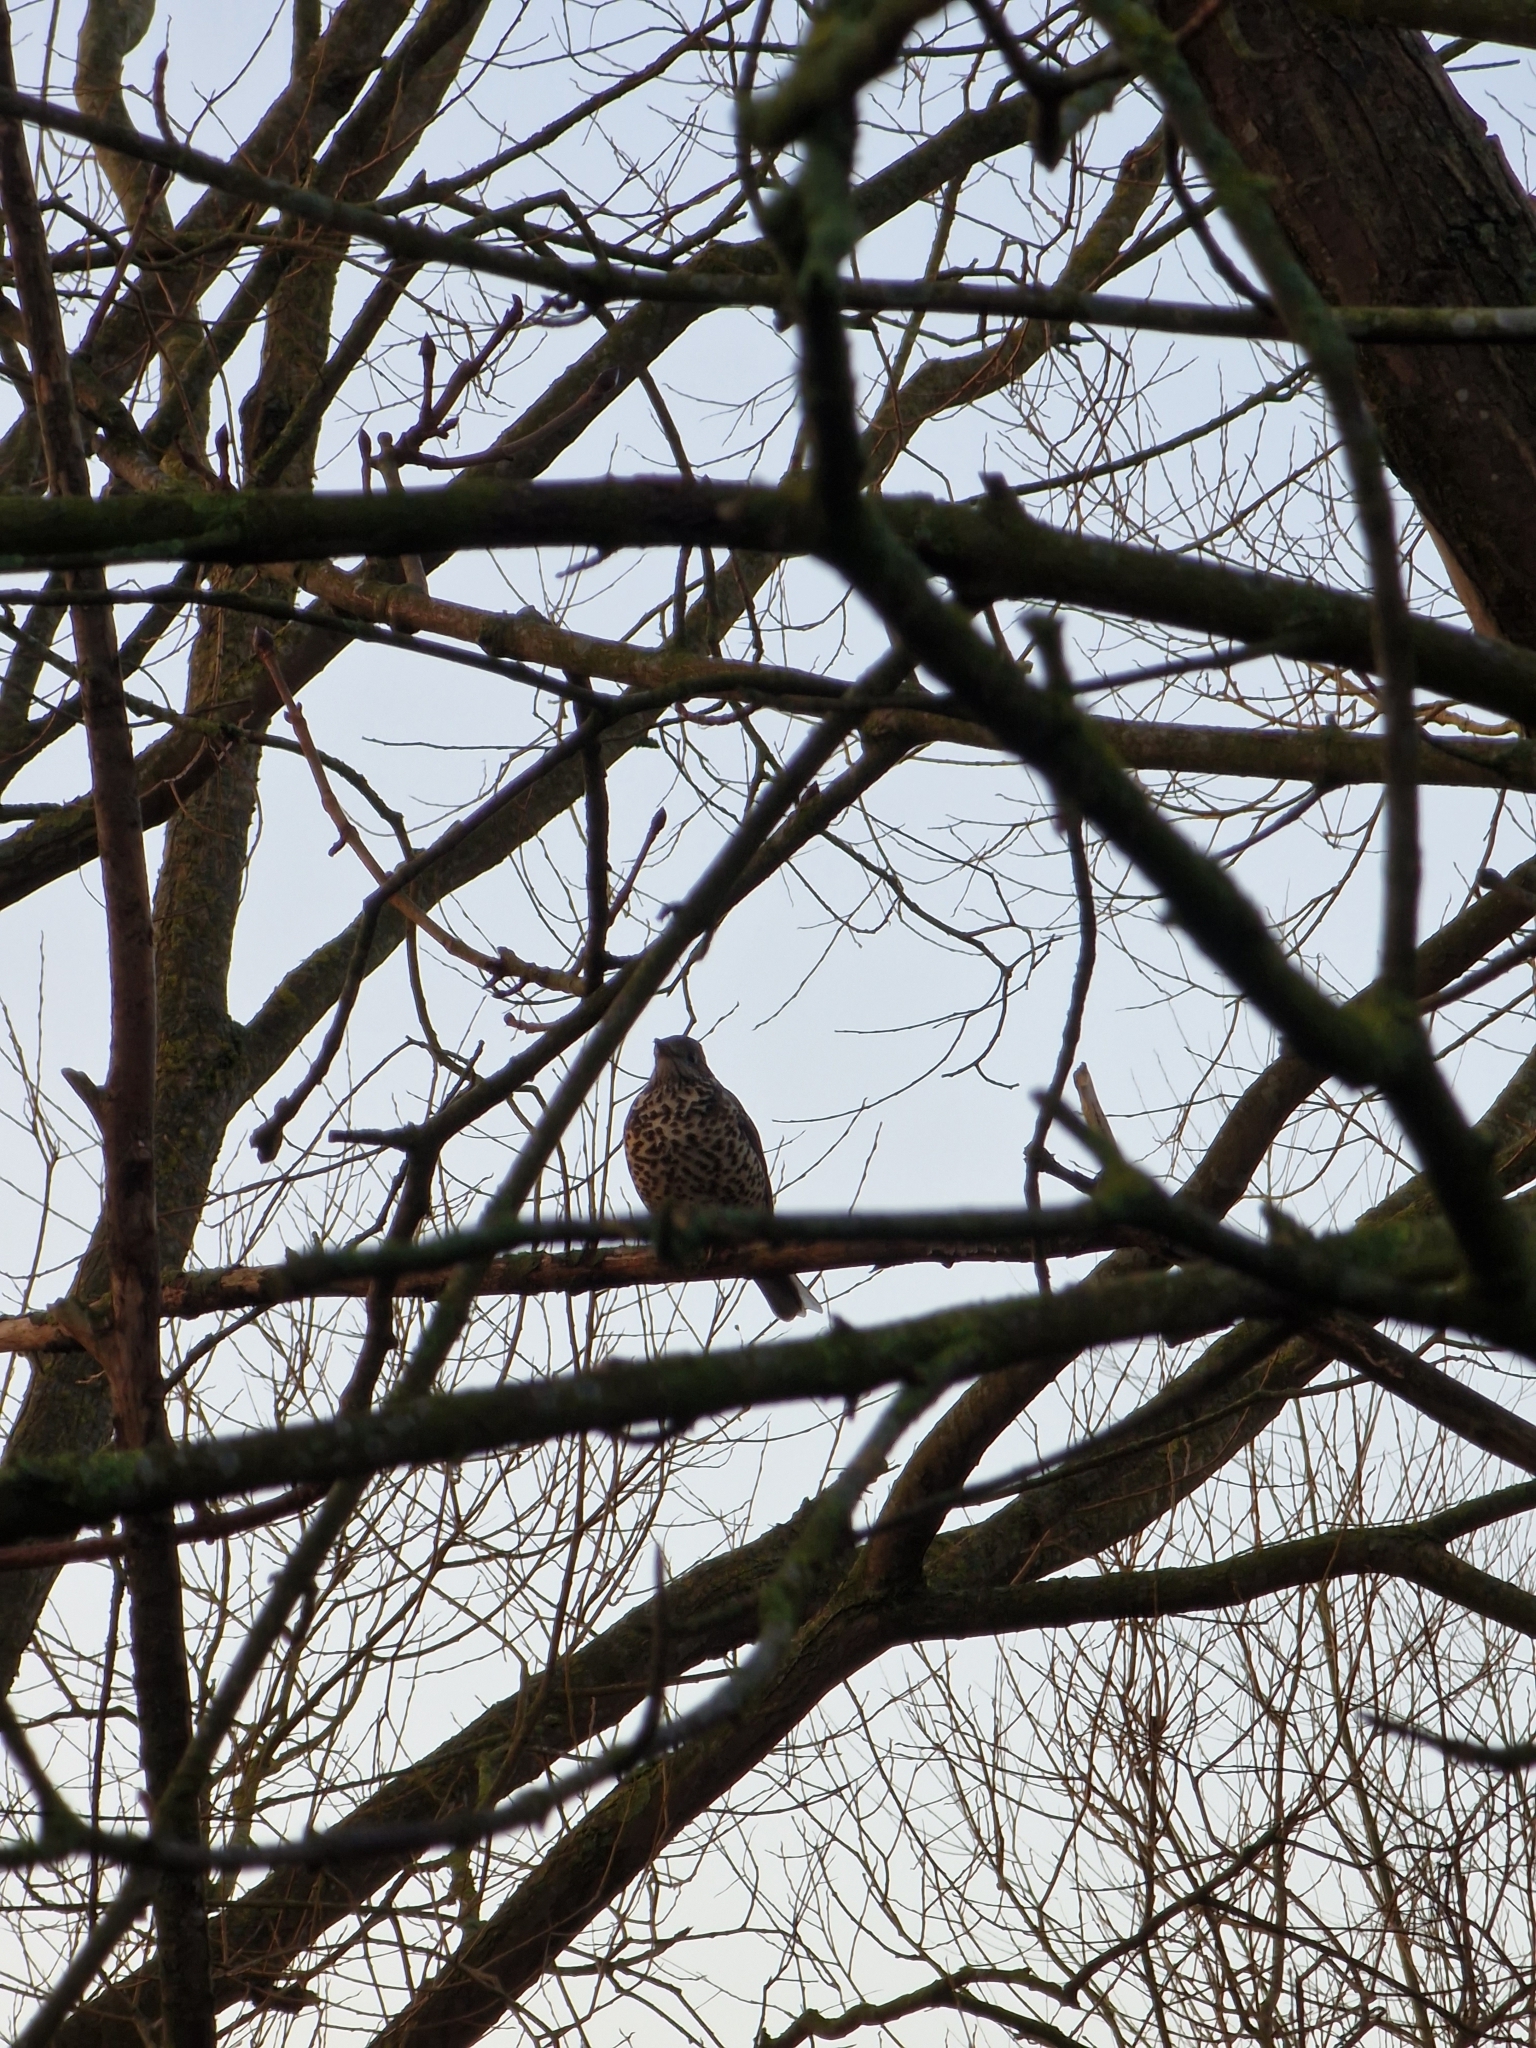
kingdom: Animalia
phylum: Chordata
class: Aves
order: Passeriformes
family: Turdidae
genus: Turdus
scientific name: Turdus viscivorus
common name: Mistle thrush
